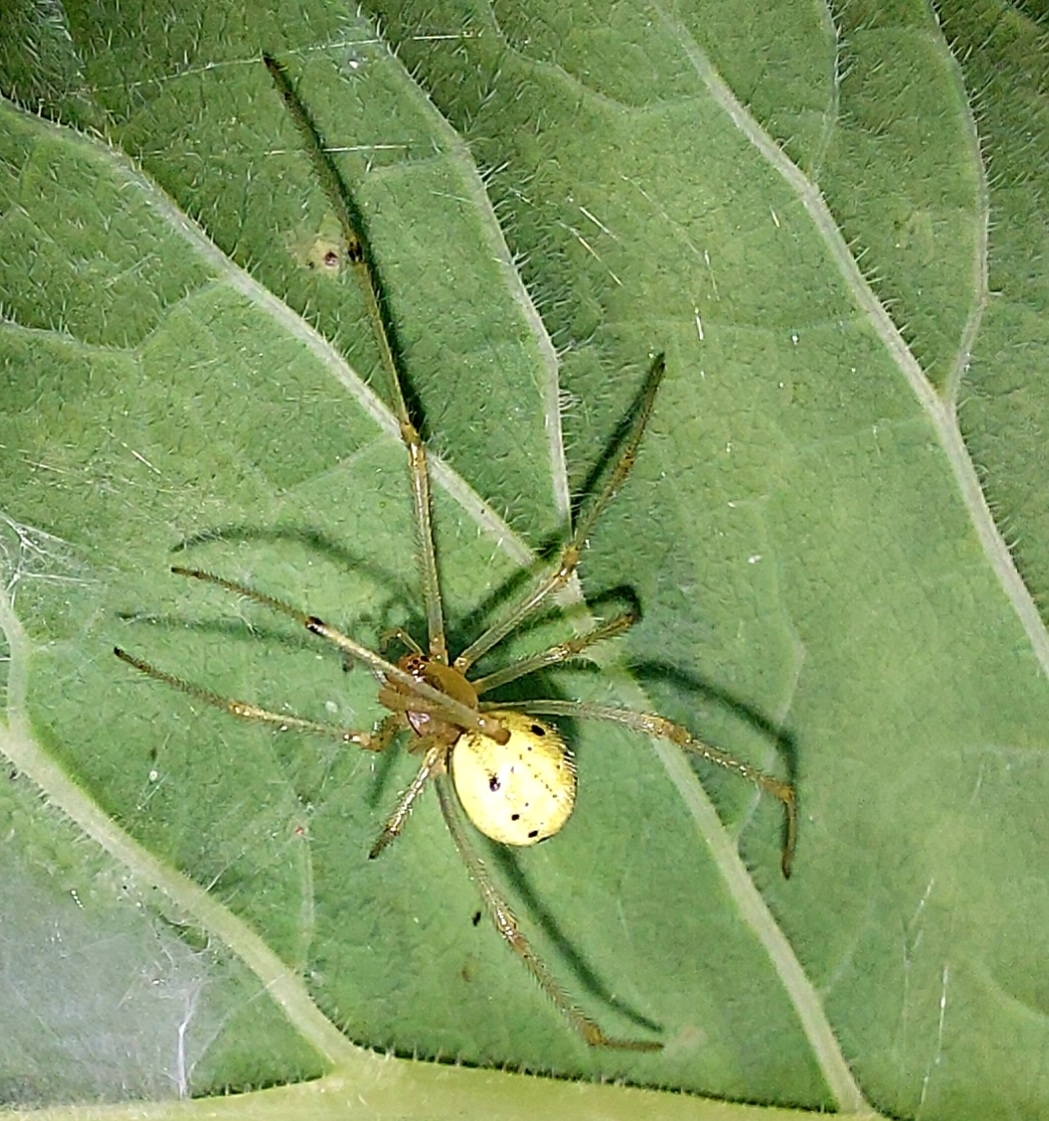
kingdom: Animalia
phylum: Arthropoda
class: Arachnida
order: Araneae
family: Theridiidae
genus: Enoplognatha
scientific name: Enoplognatha ovata
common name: Common candy-striped spider
